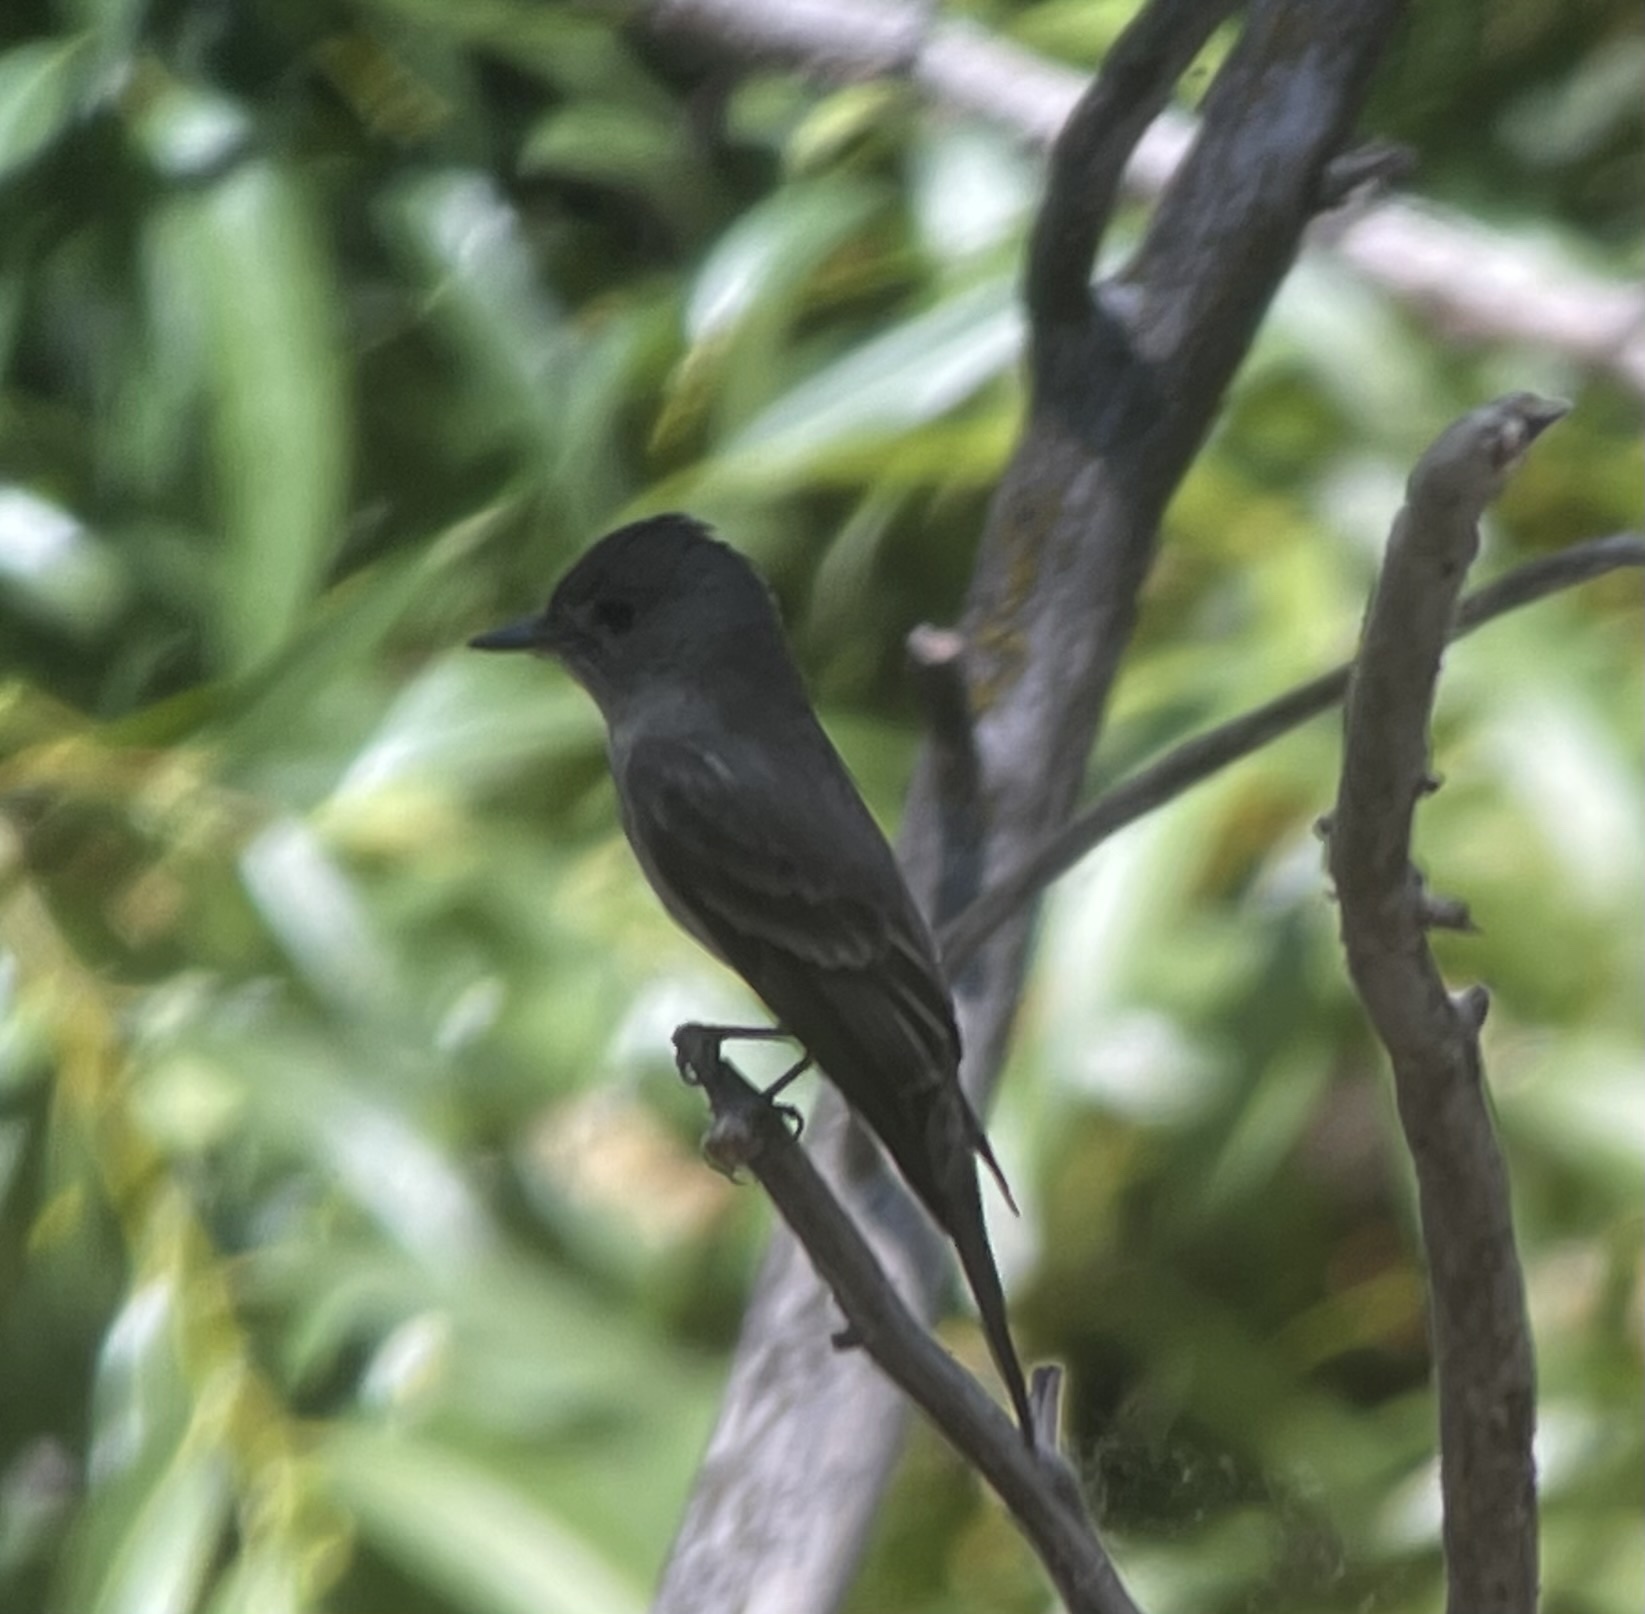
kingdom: Animalia
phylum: Chordata
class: Aves
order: Passeriformes
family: Tyrannidae
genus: Contopus
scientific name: Contopus sordidulus
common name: Western wood-pewee
